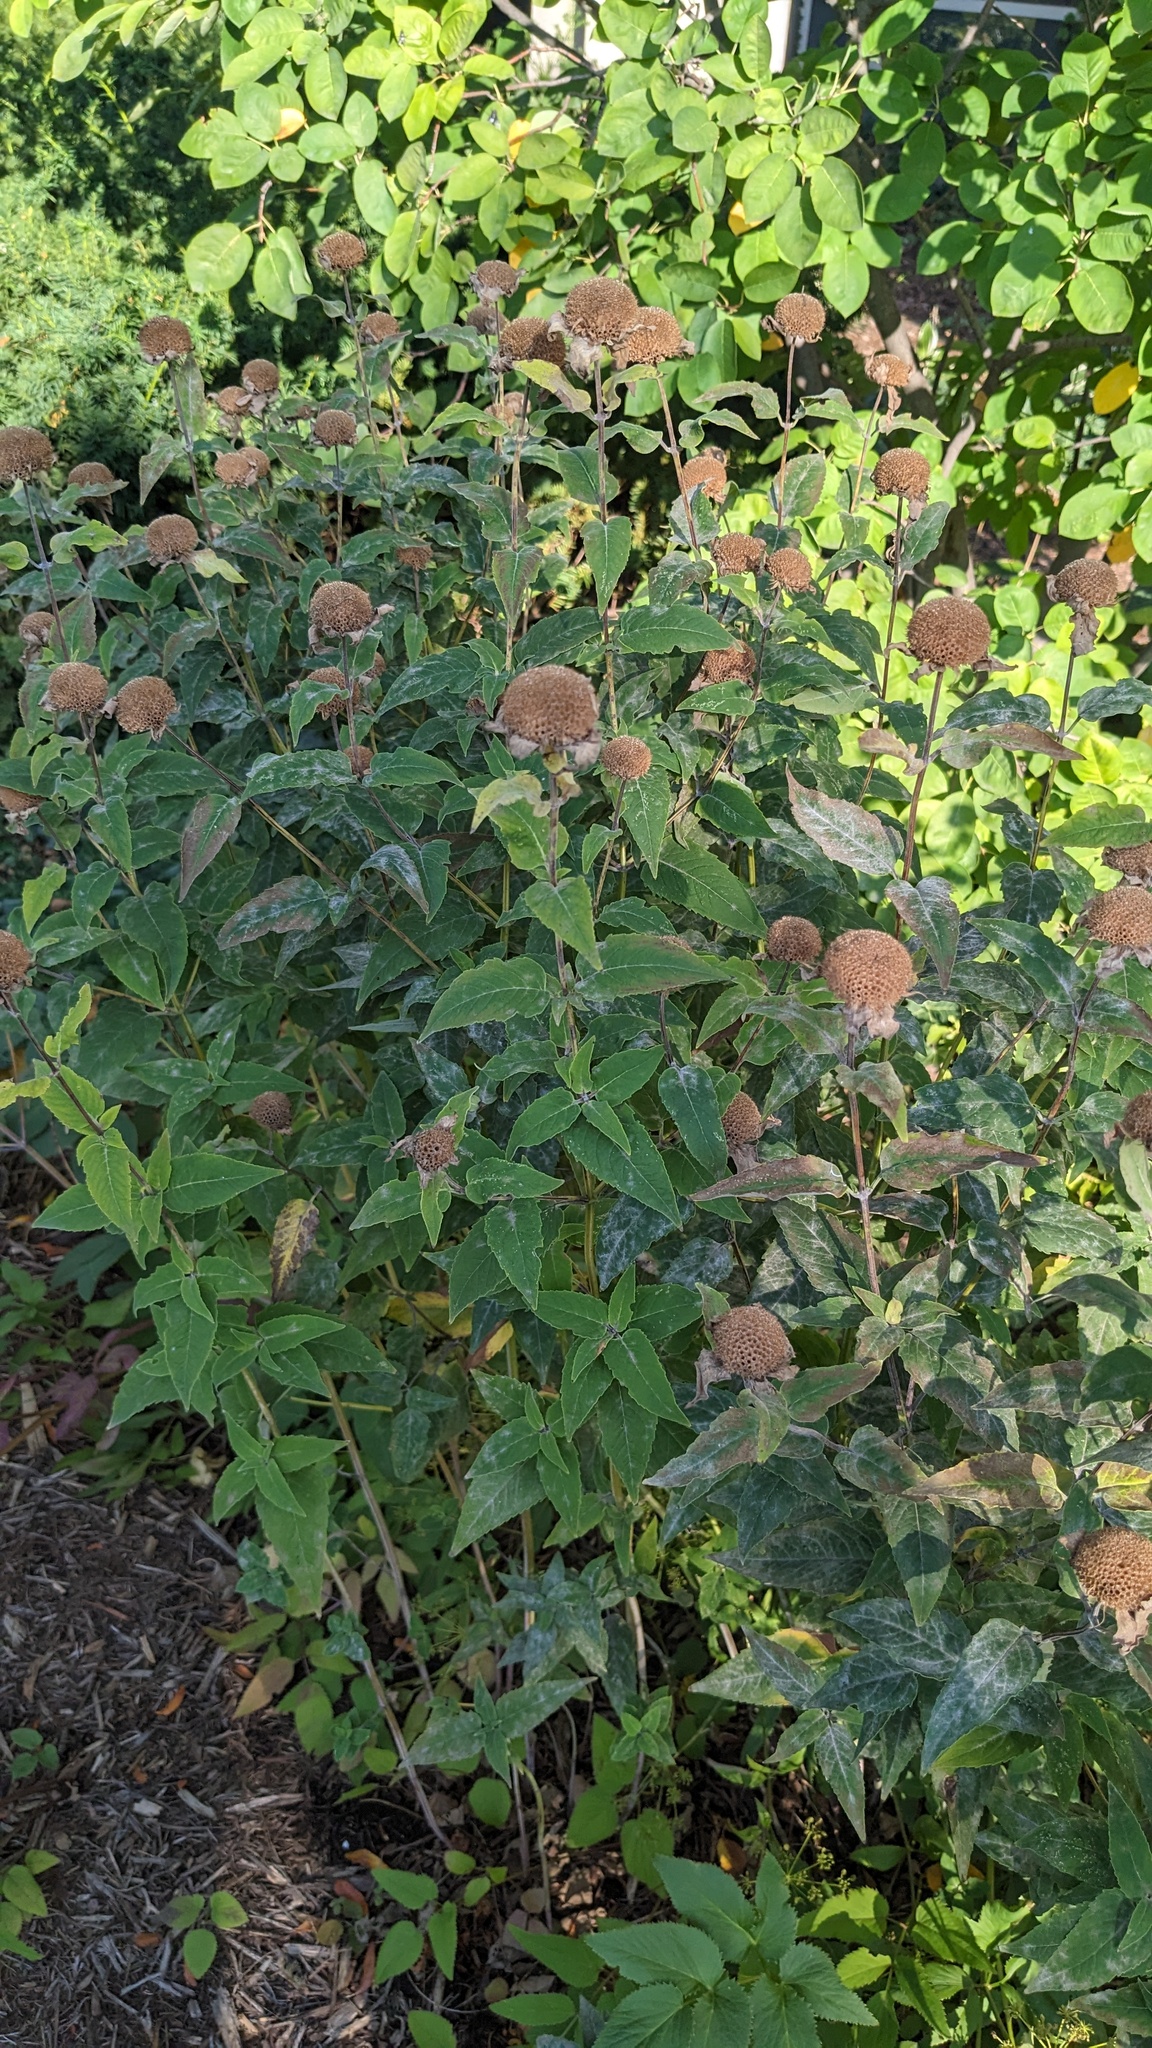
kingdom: Fungi
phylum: Ascomycota
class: Leotiomycetes
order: Helotiales
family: Erysiphaceae
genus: Golovinomyces
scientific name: Golovinomyces monardae
